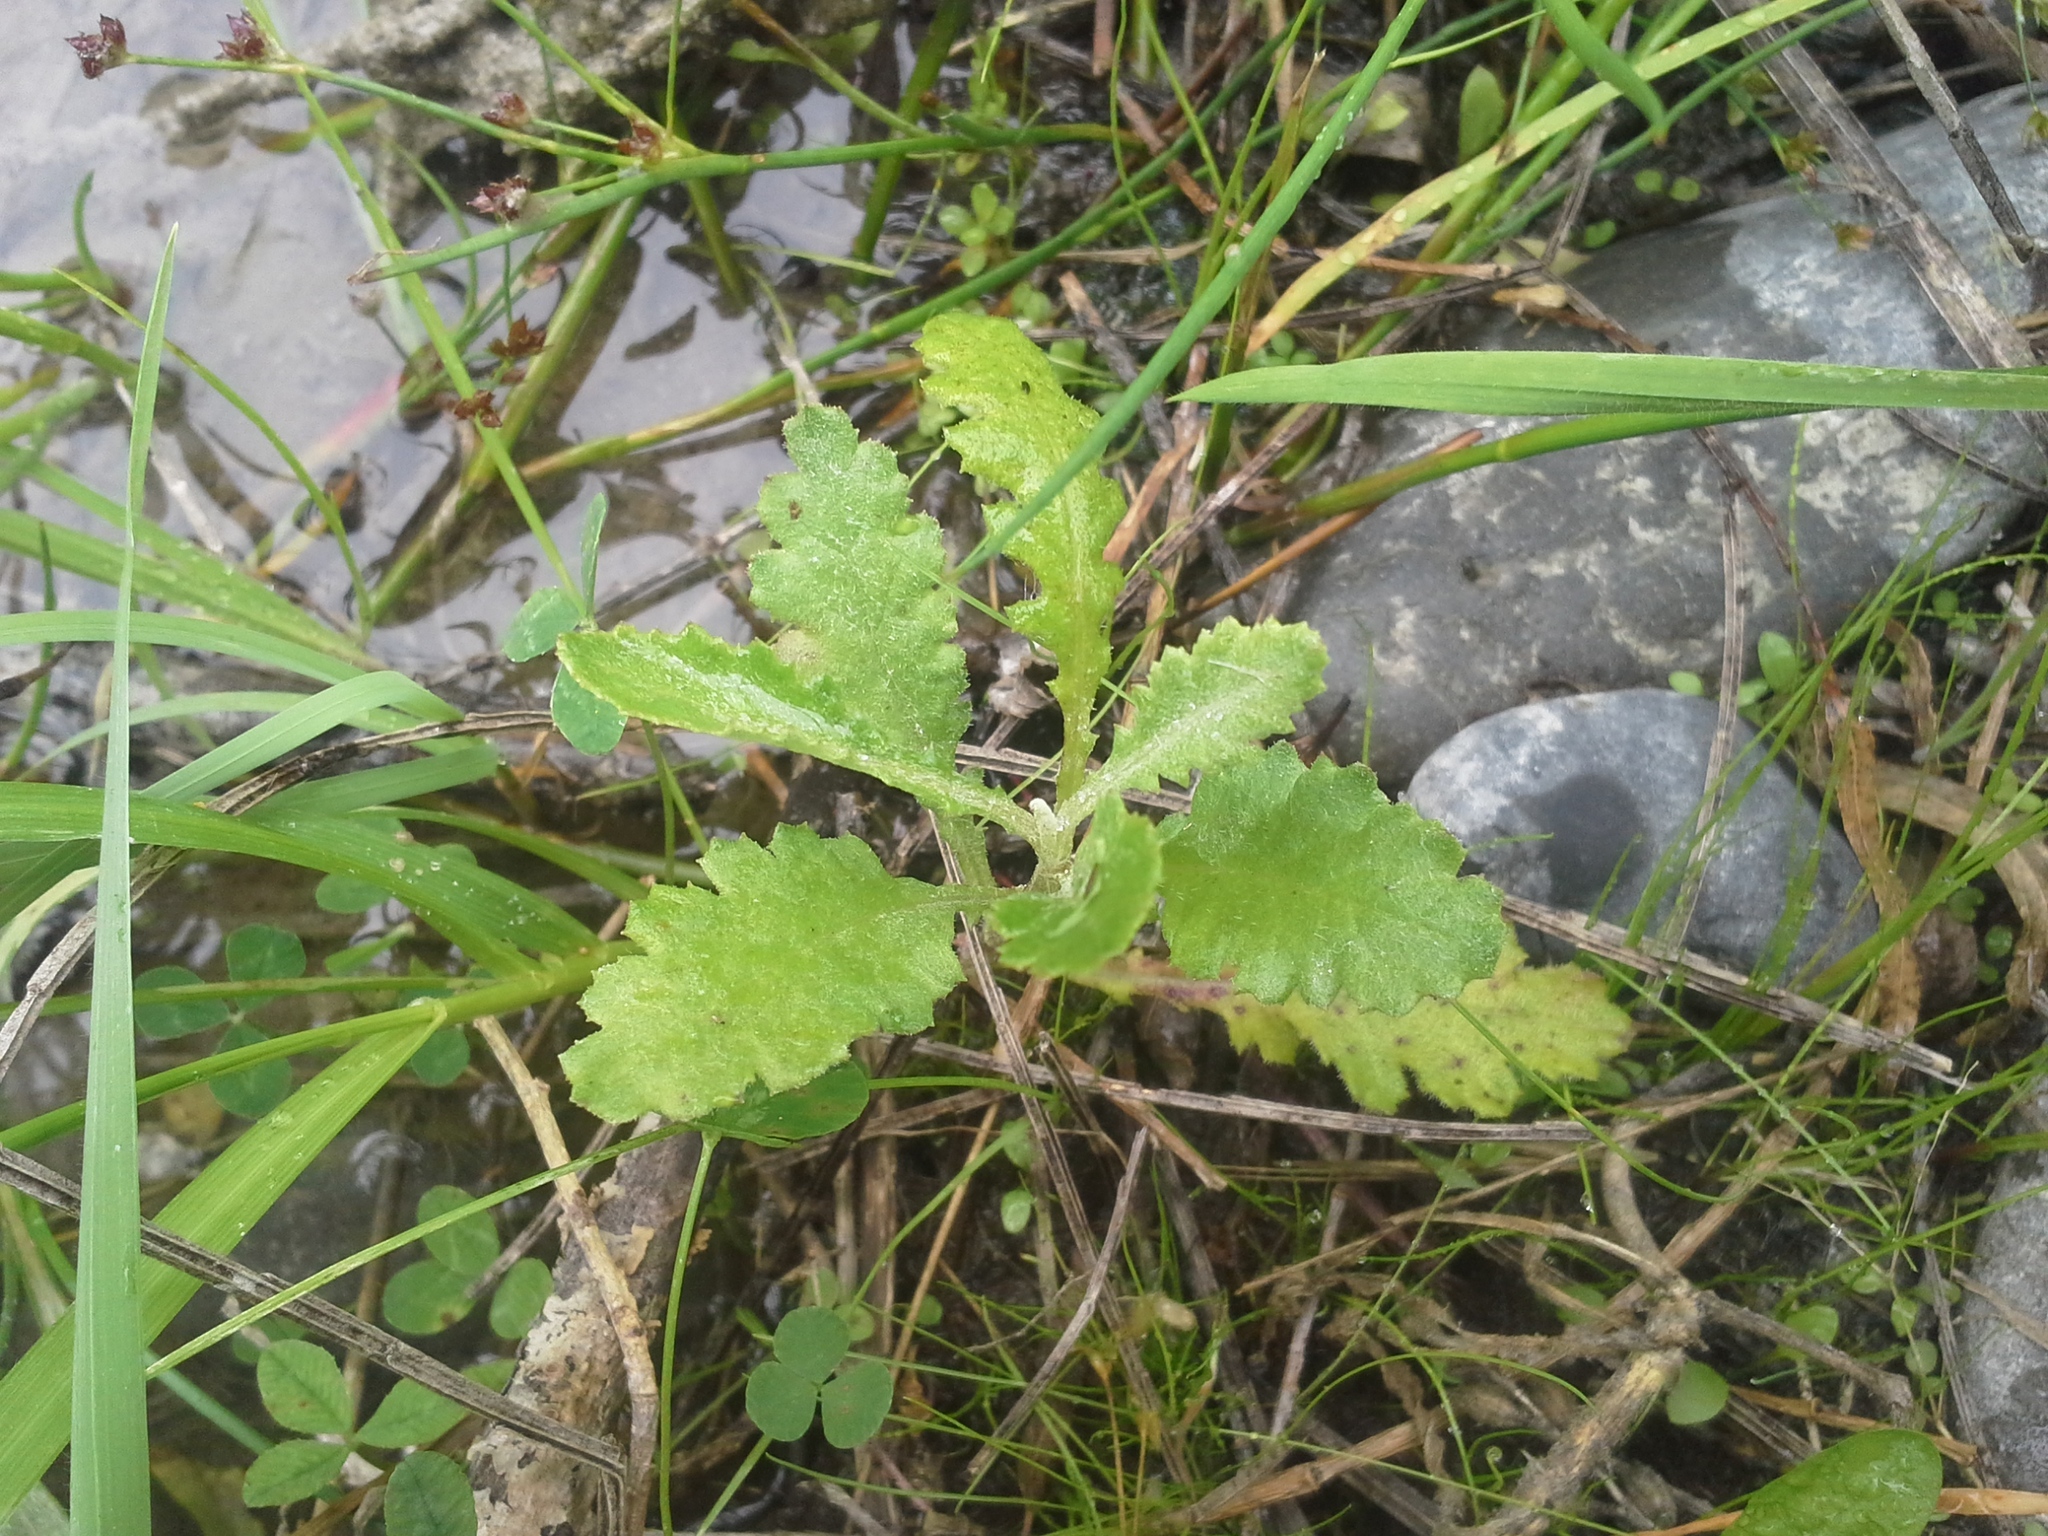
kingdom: Plantae
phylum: Tracheophyta
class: Magnoliopsida
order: Asterales
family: Asteraceae
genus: Senecio
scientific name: Senecio glomeratus
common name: Cutleaf burnweed
